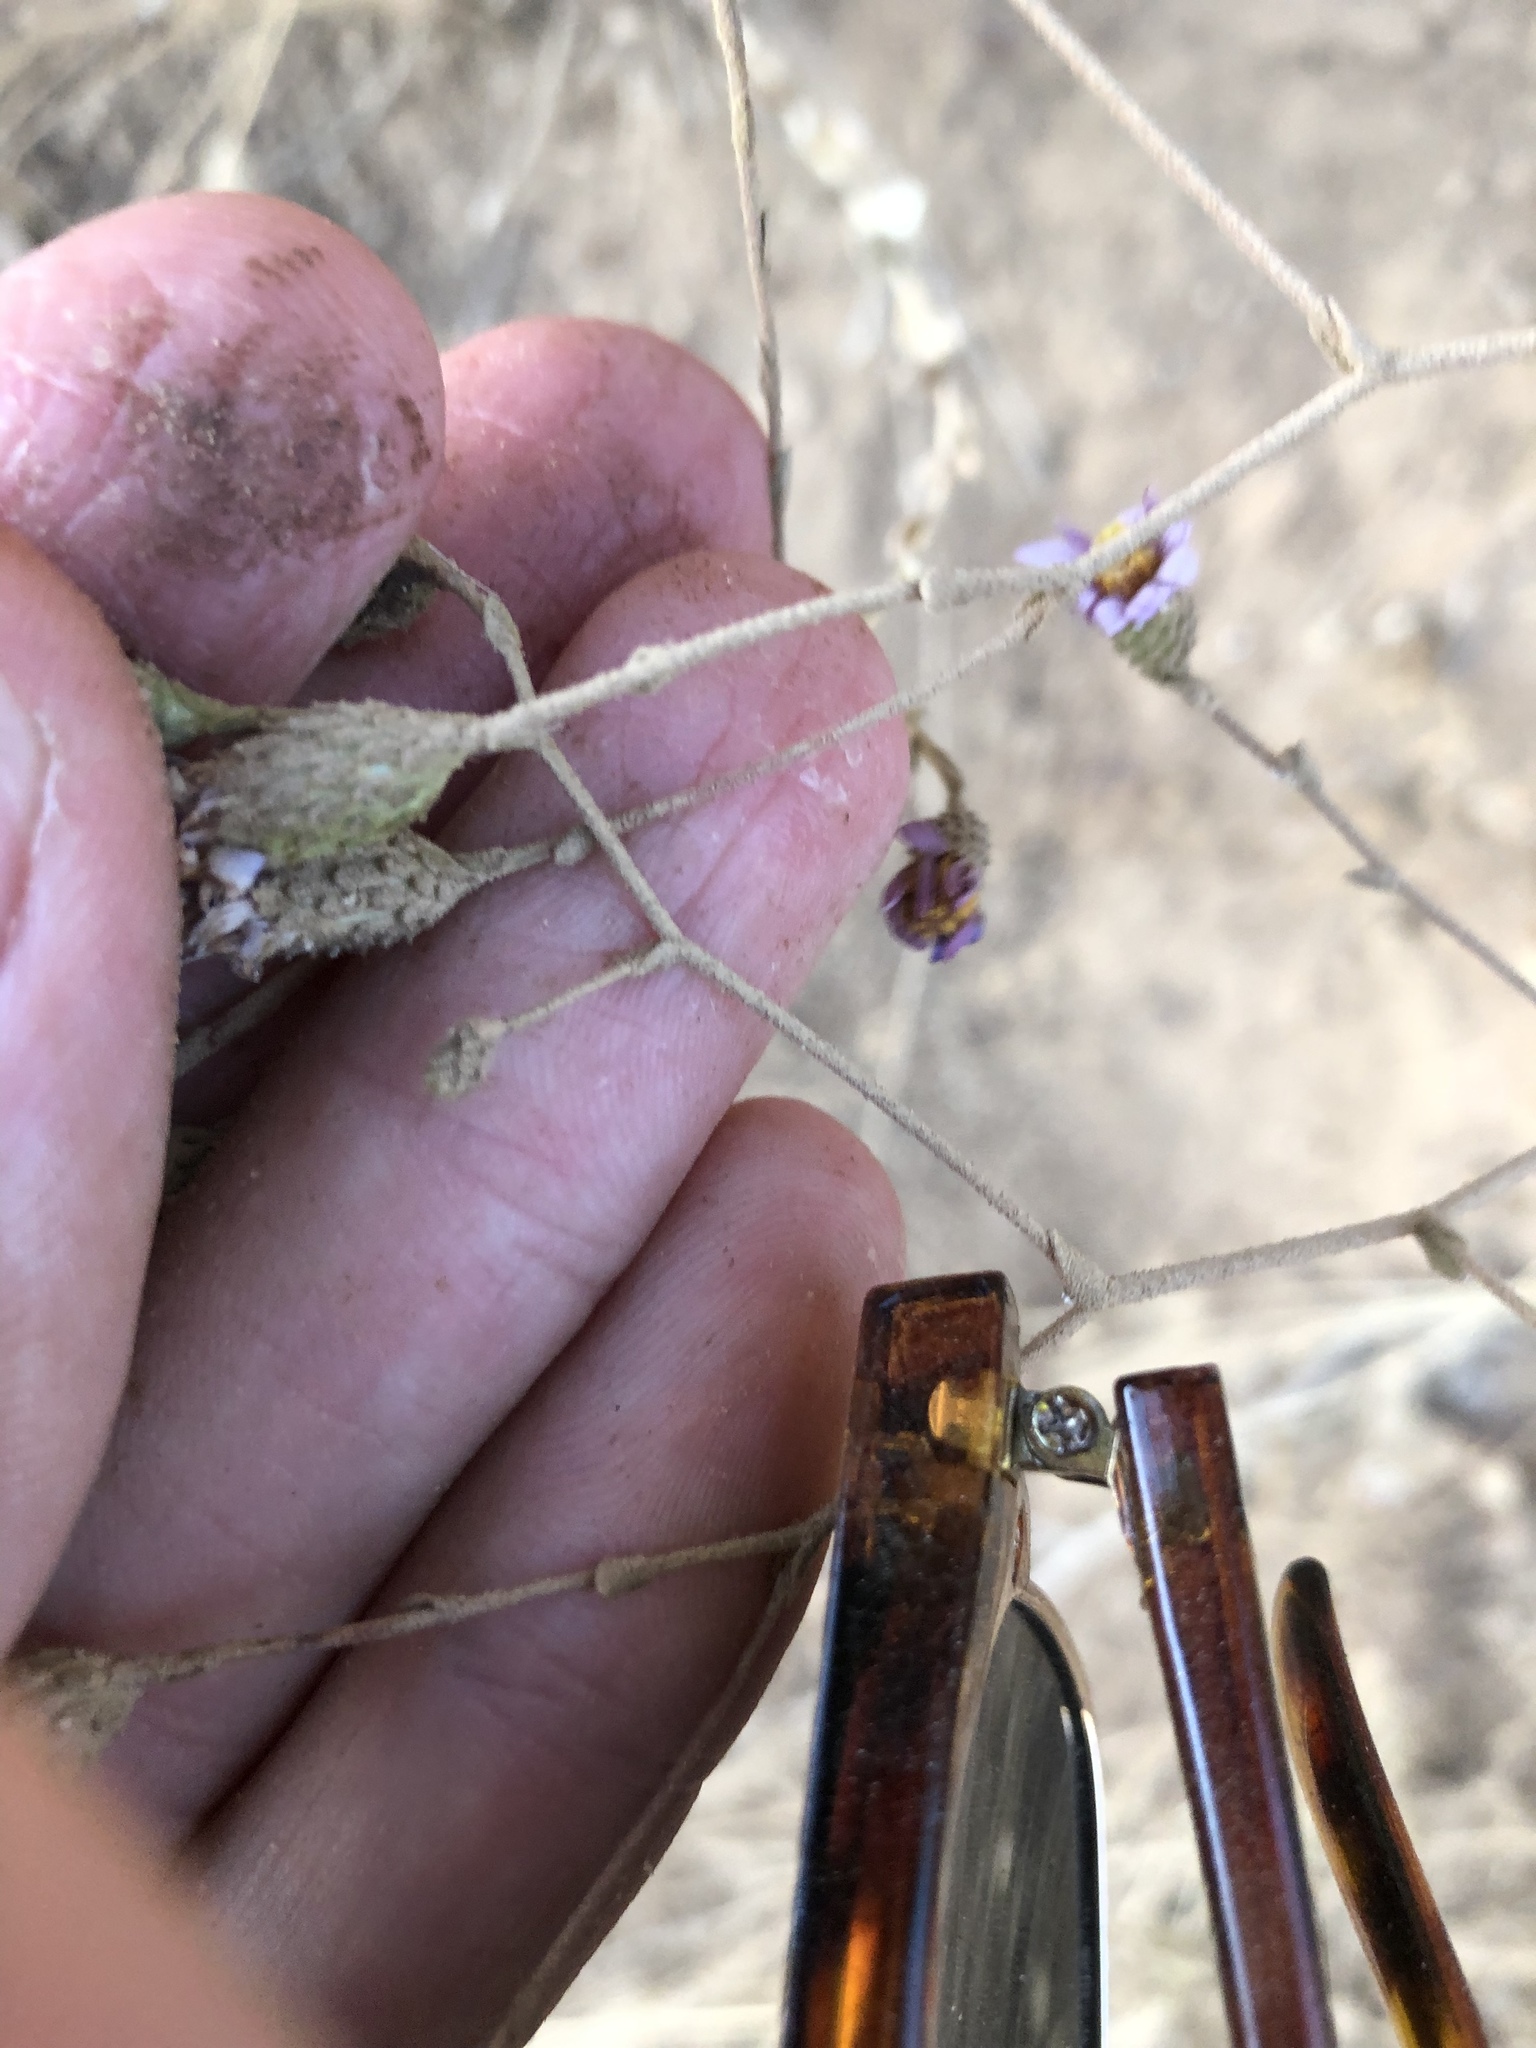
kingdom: Plantae
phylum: Tracheophyta
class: Magnoliopsida
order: Asterales
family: Asteraceae
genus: Corethrogyne
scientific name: Corethrogyne filaginifolia
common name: Sand-aster
